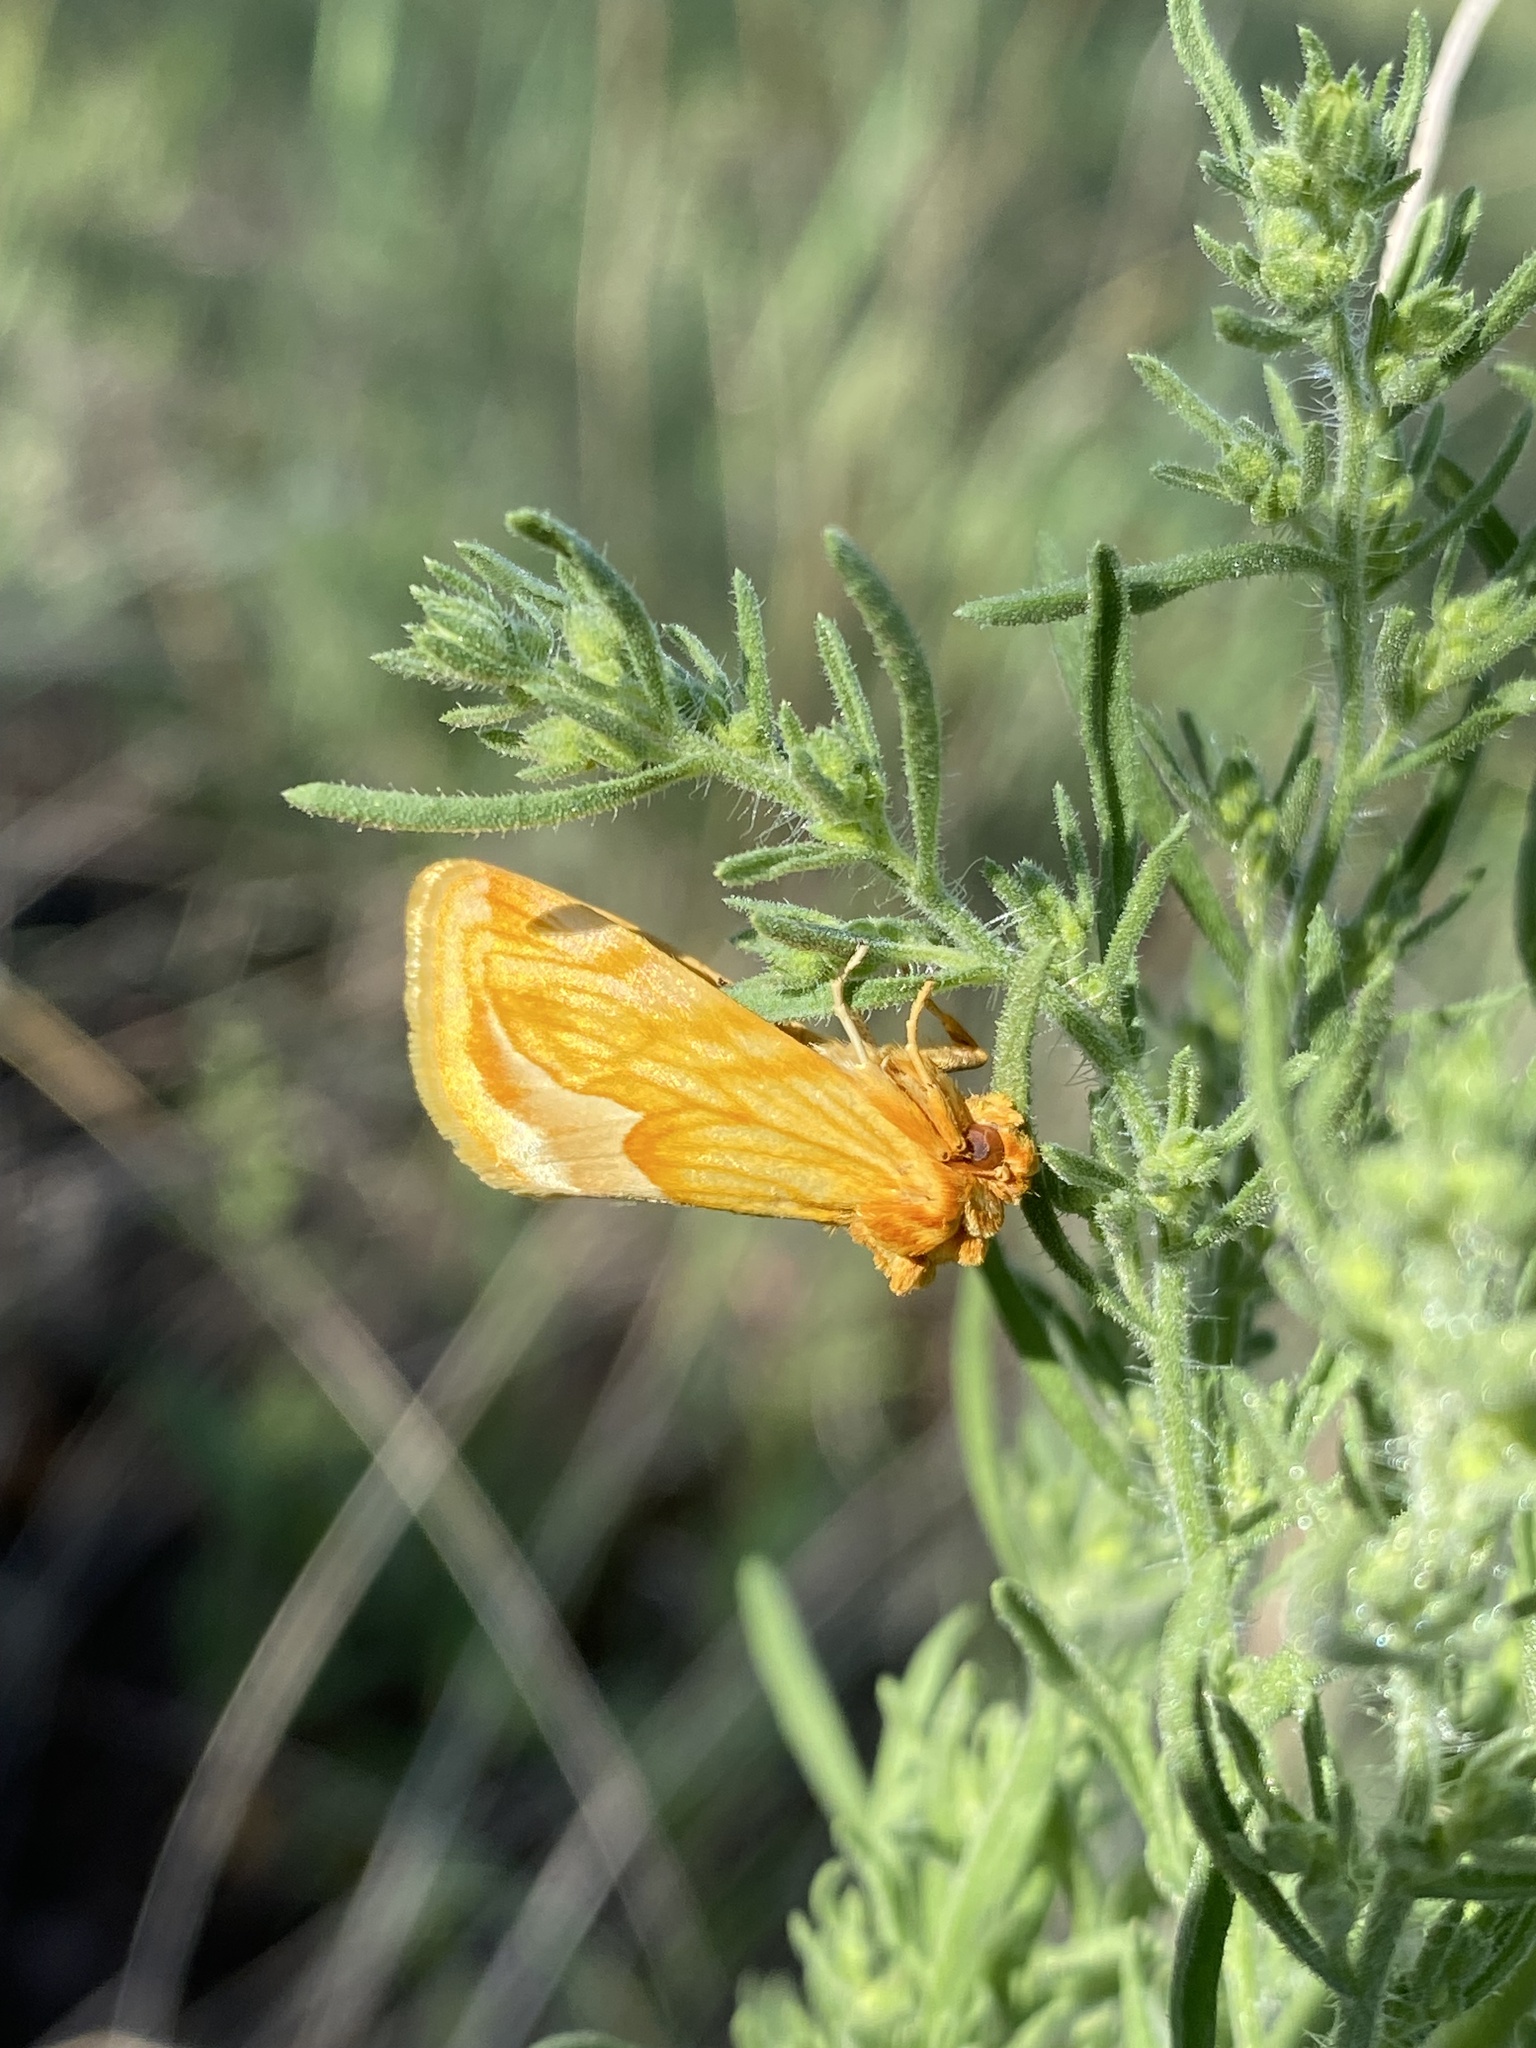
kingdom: Animalia
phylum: Arthropoda
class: Insecta
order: Lepidoptera
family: Noctuidae
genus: Cirrhophanus
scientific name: Cirrhophanus dyari
